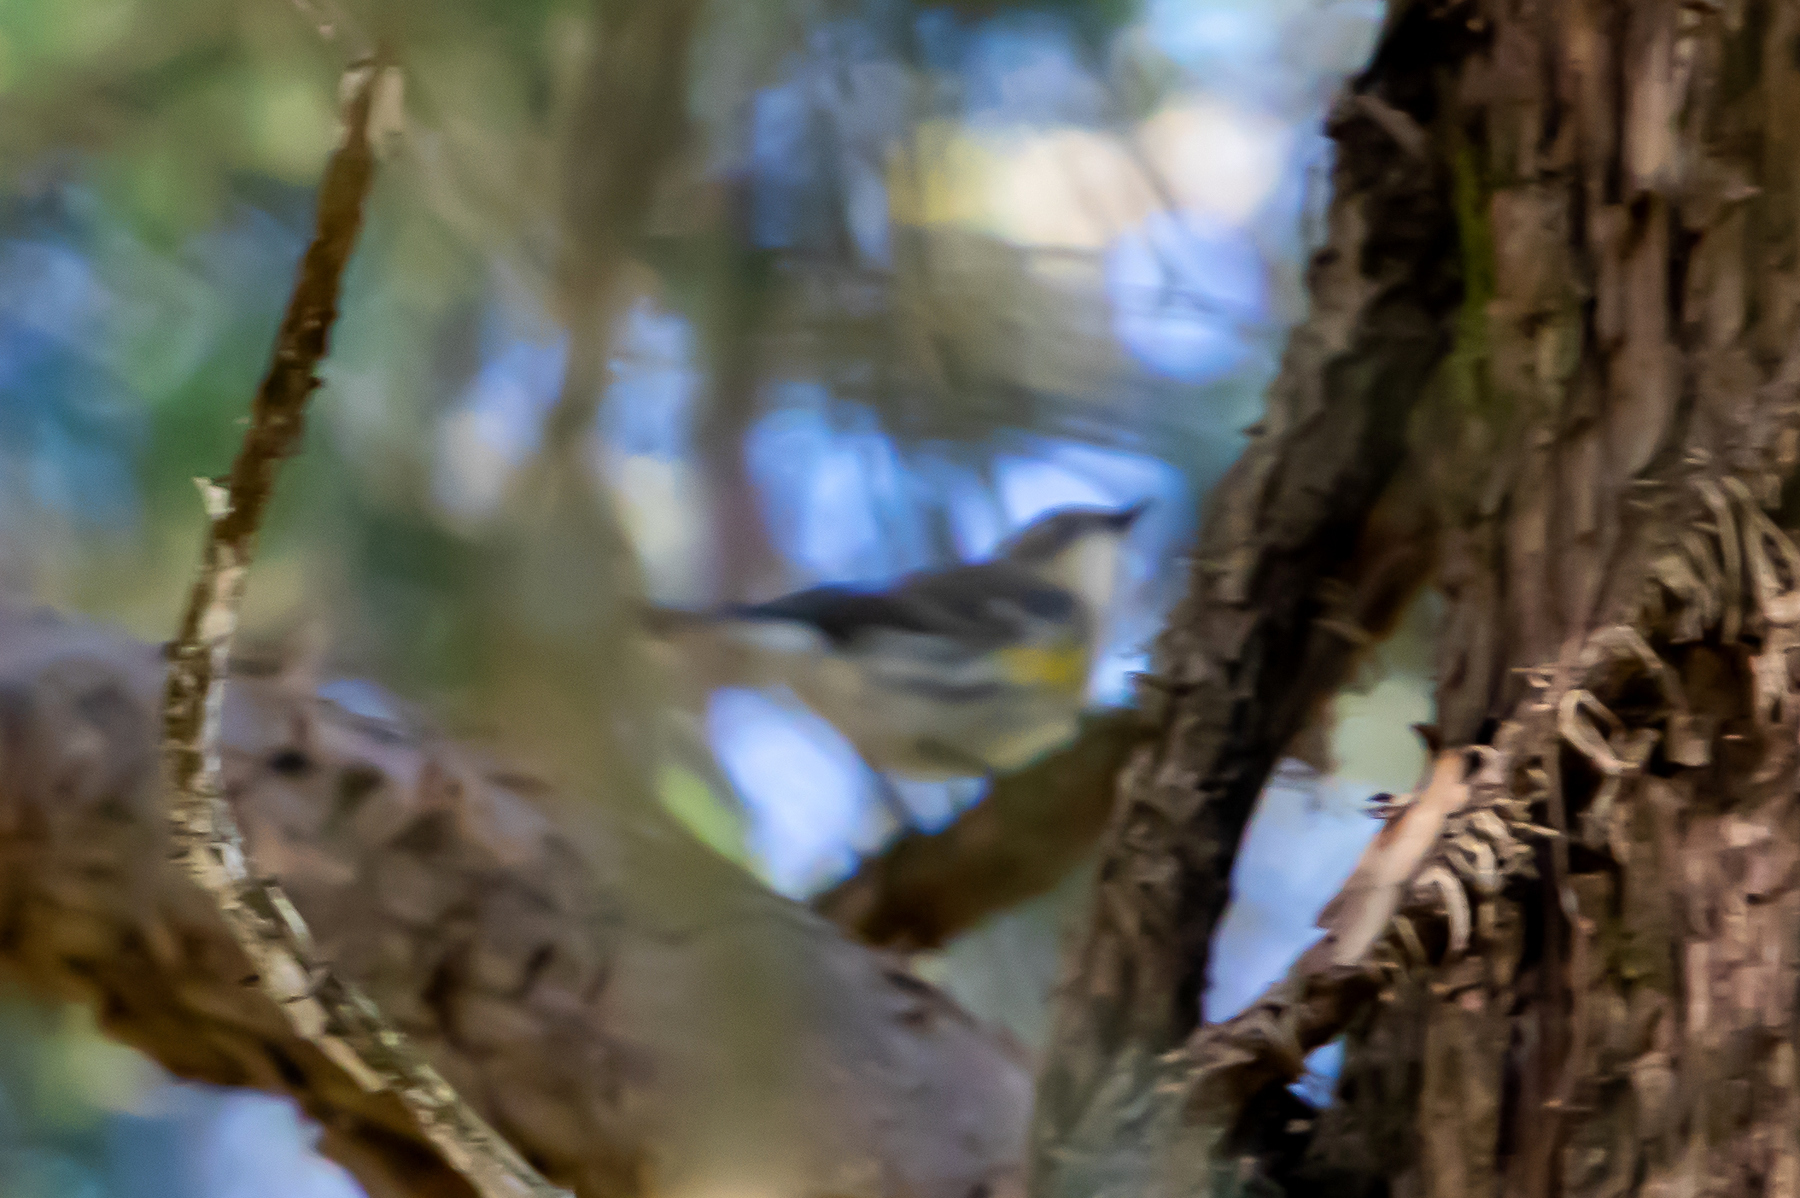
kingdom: Animalia
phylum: Chordata
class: Aves
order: Passeriformes
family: Parulidae
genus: Setophaga
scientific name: Setophaga coronata
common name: Myrtle warbler
